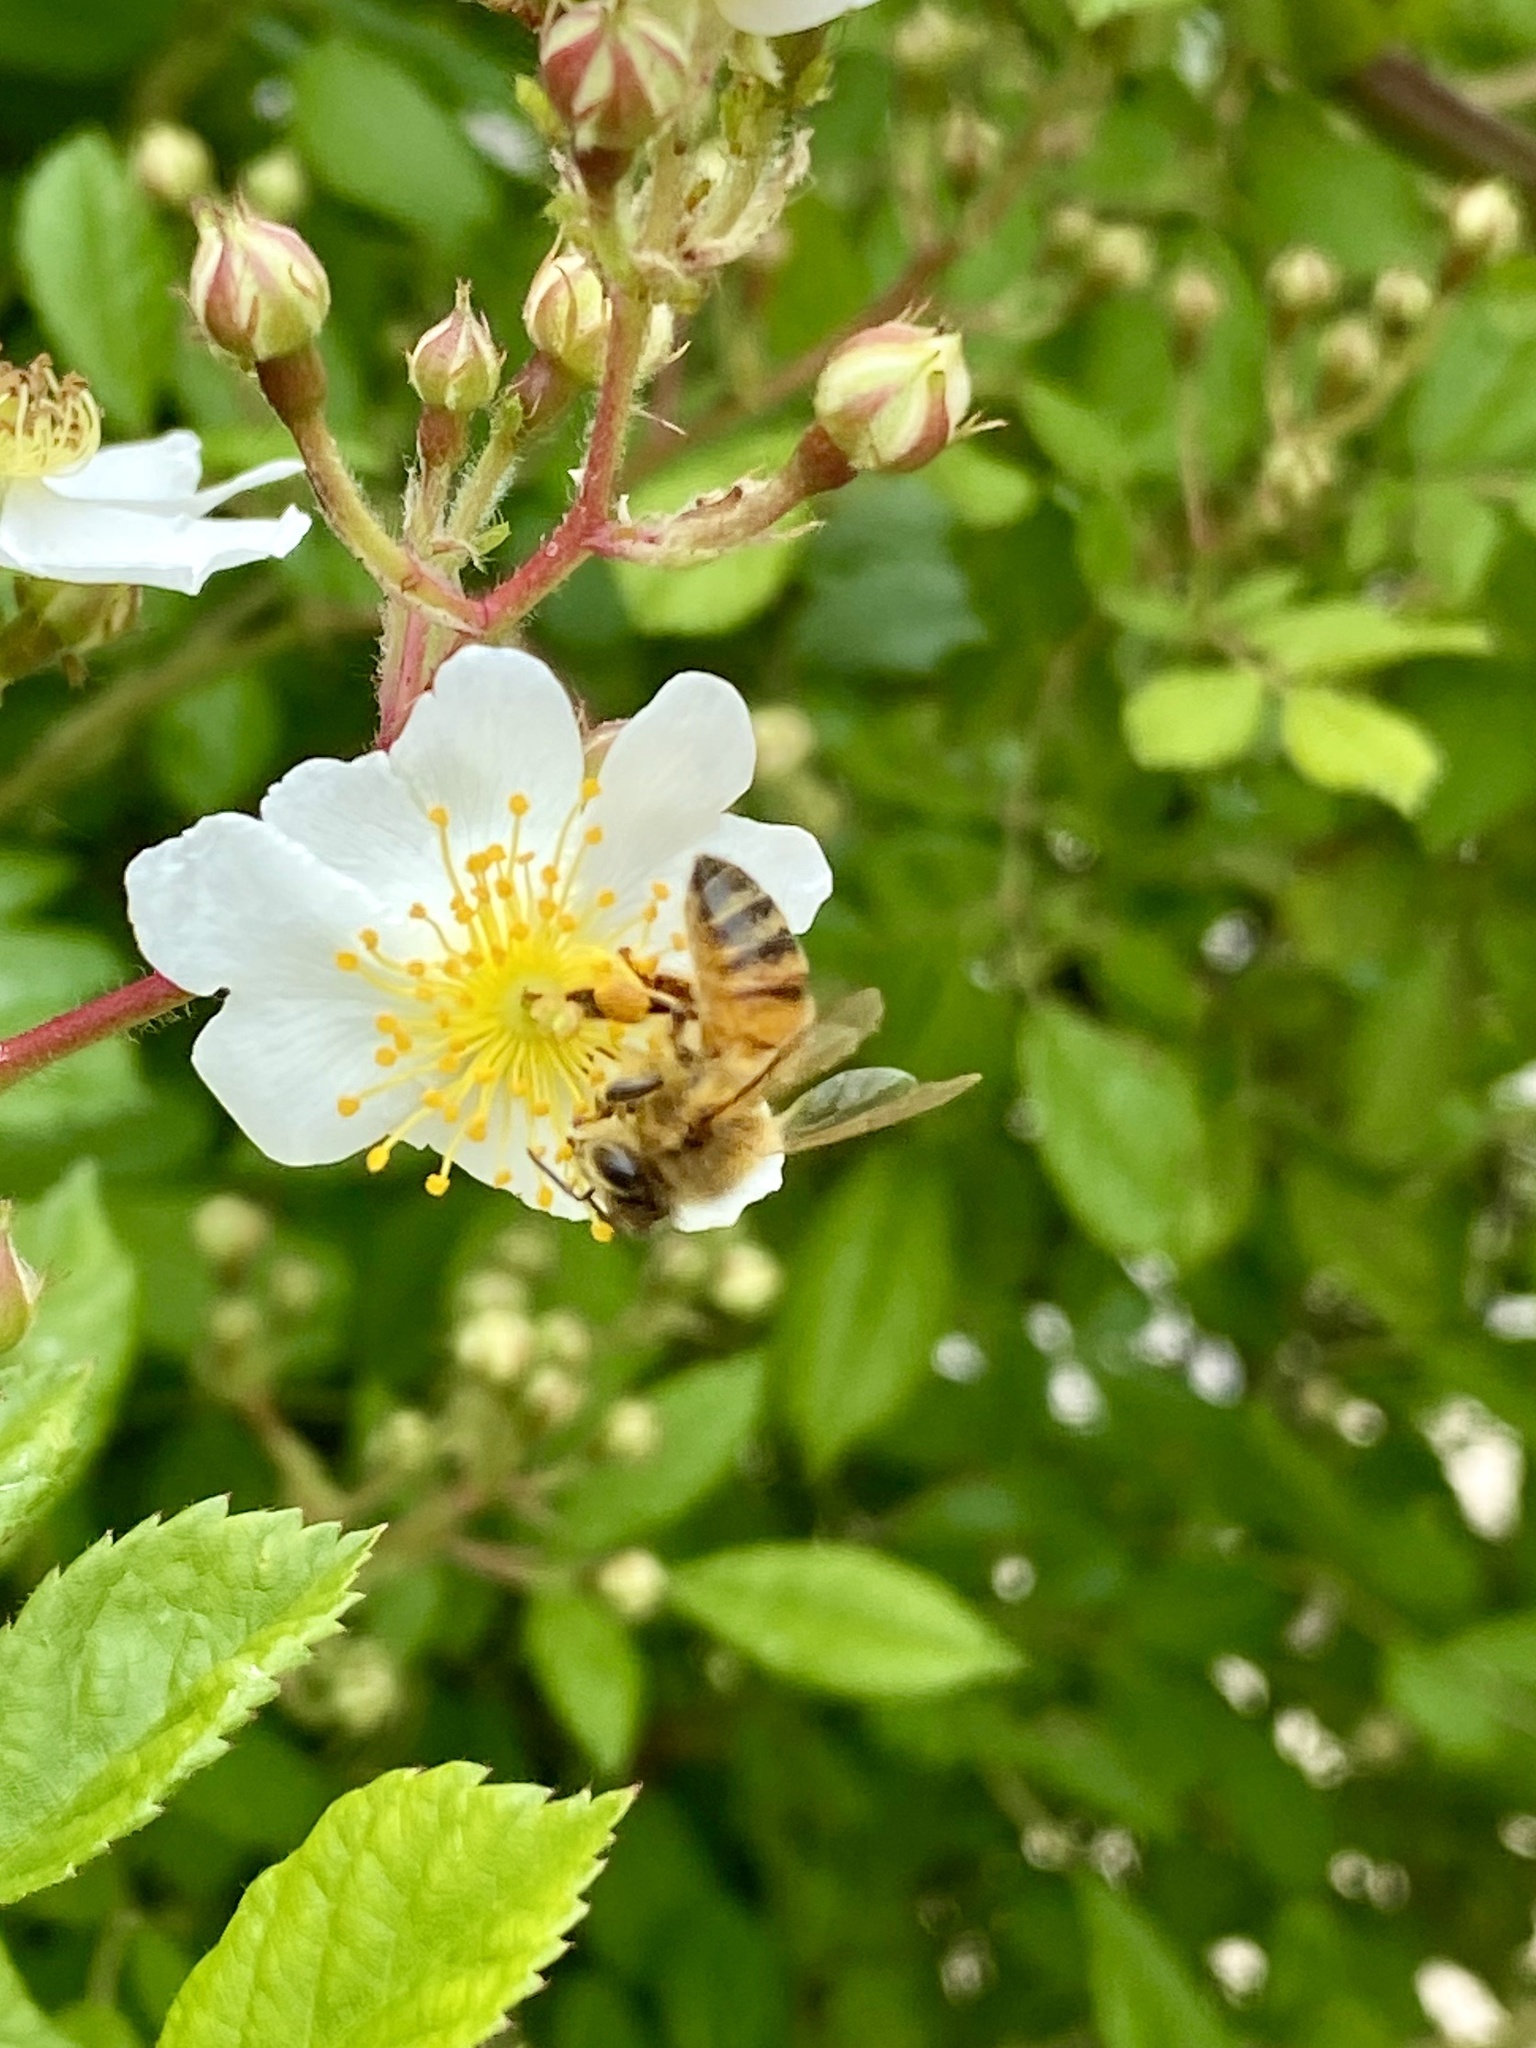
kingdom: Animalia
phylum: Arthropoda
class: Insecta
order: Hymenoptera
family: Apidae
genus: Apis
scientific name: Apis mellifera
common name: Honey bee
